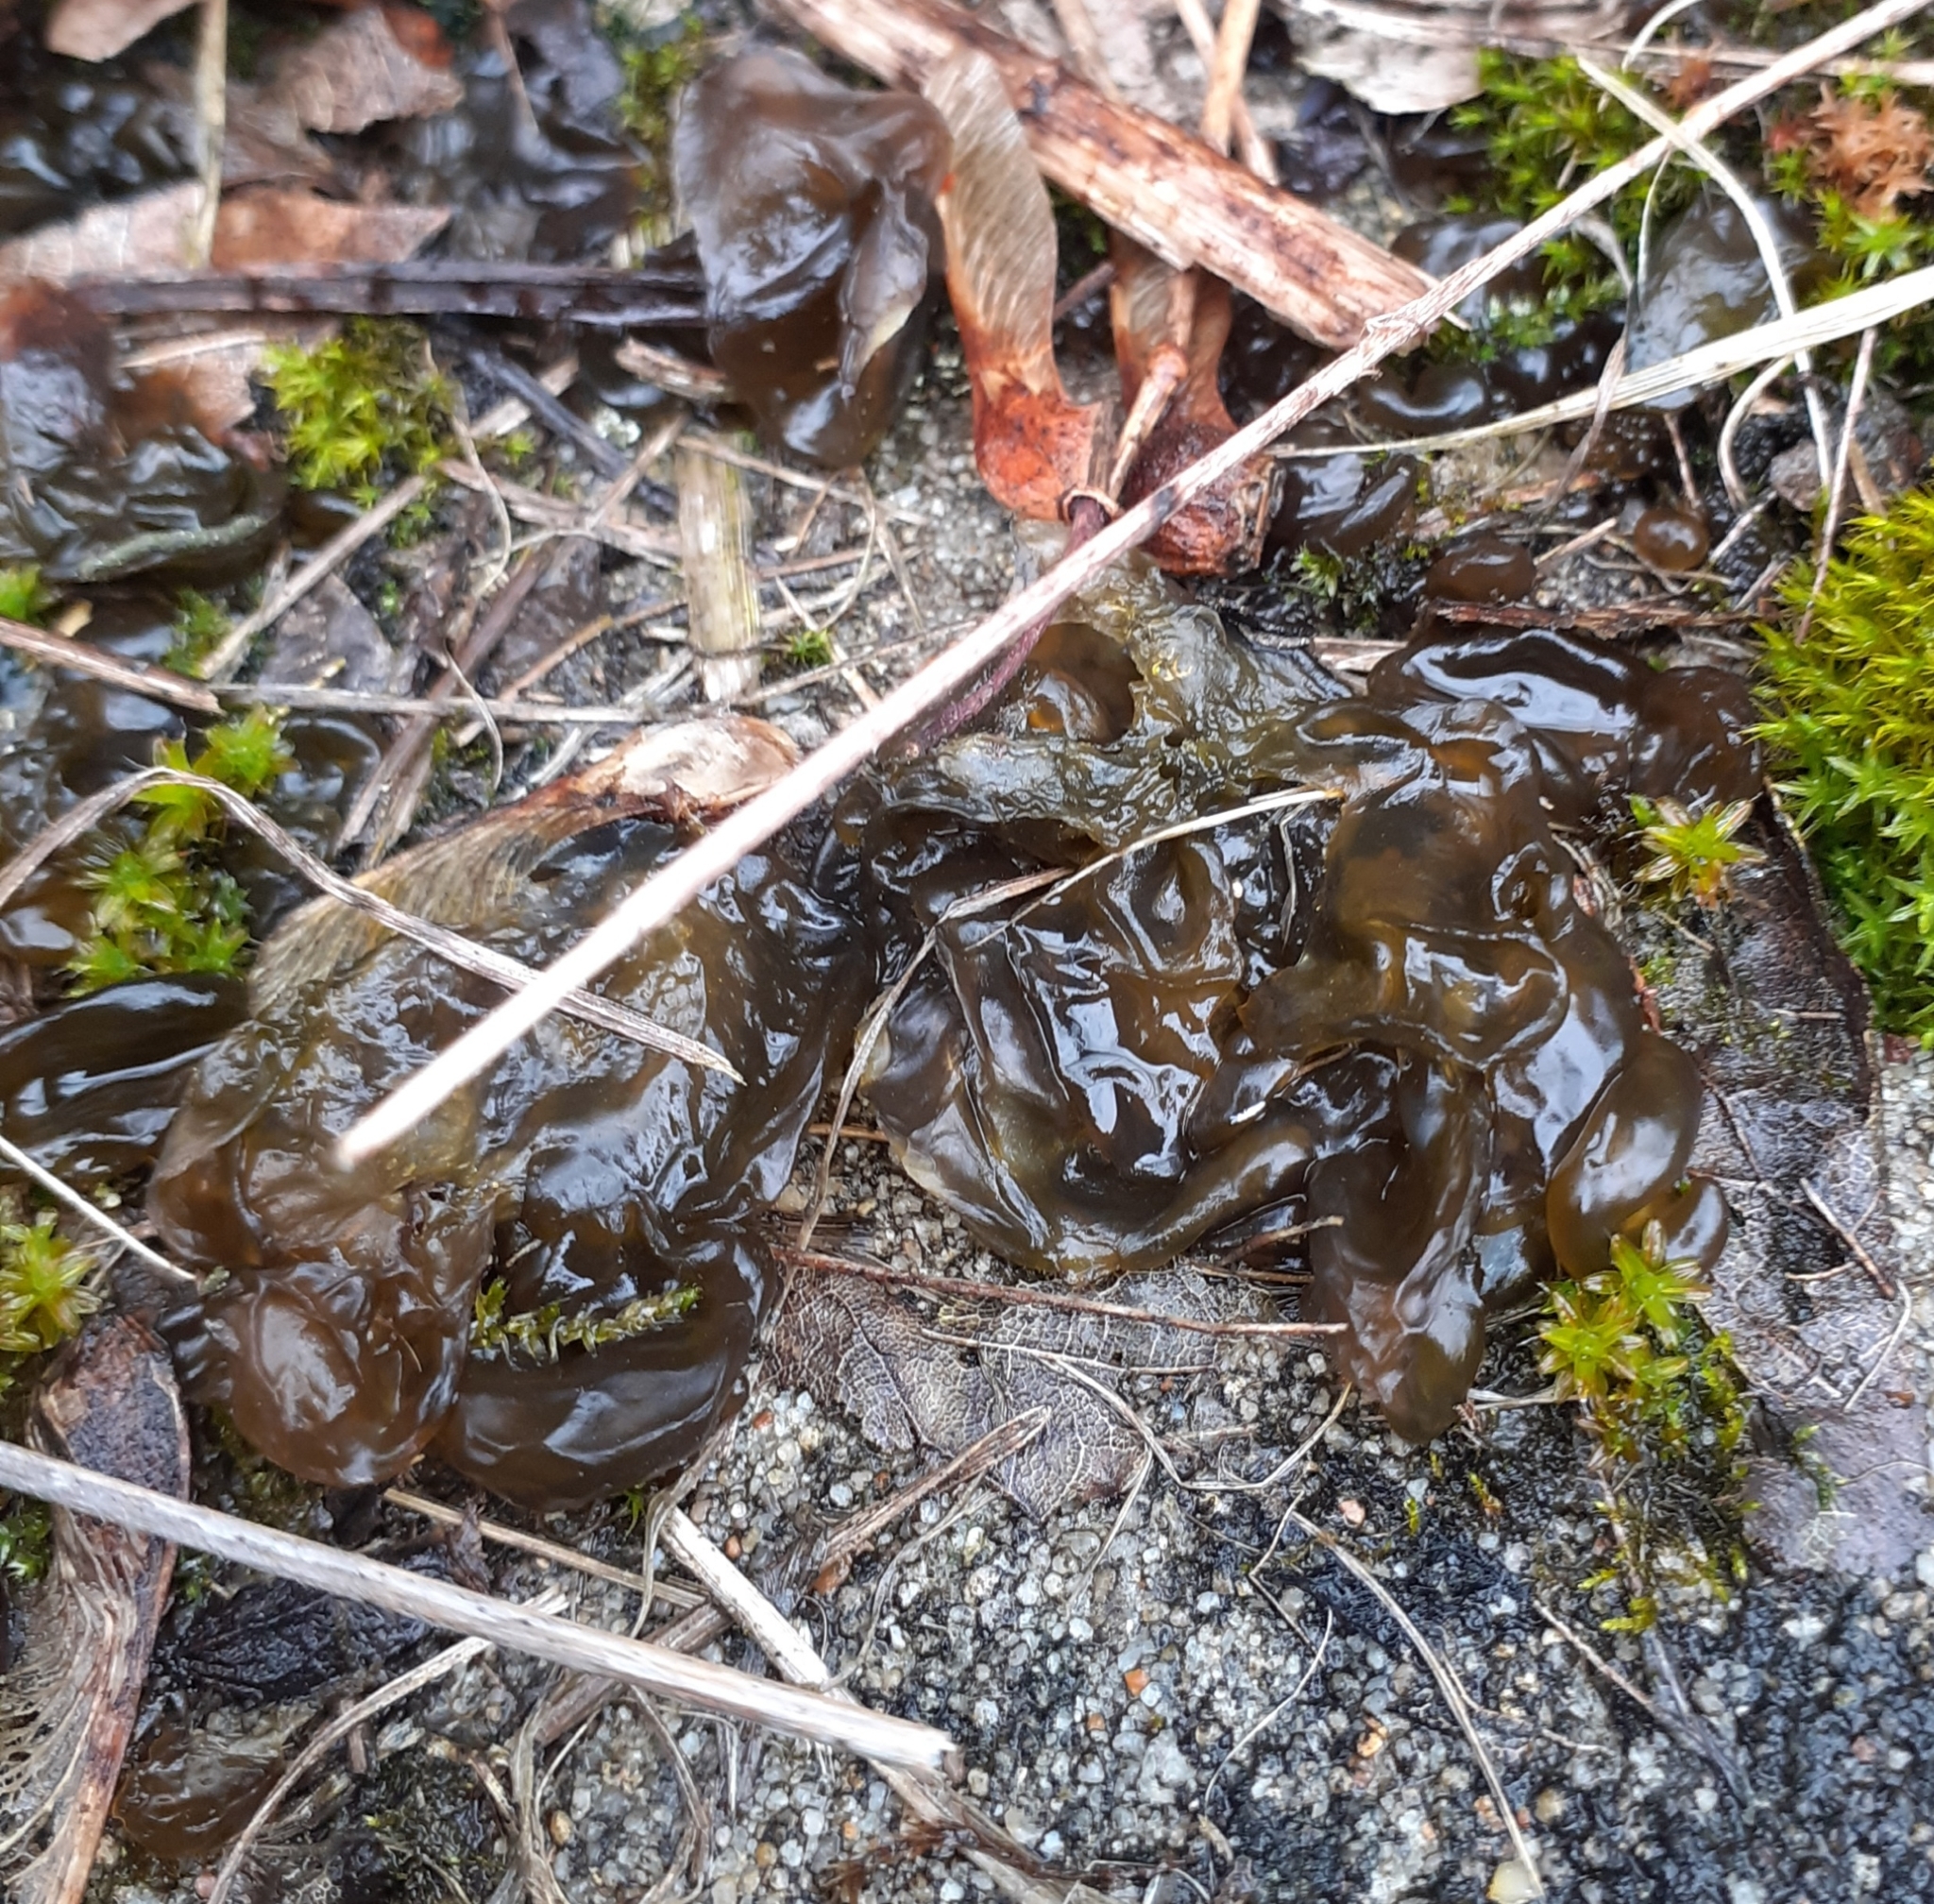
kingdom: Bacteria
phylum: Cyanobacteria
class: Cyanobacteriia
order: Cyanobacteriales
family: Nostocaceae
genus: Nostoc
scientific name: Nostoc commune
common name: Star jelly
